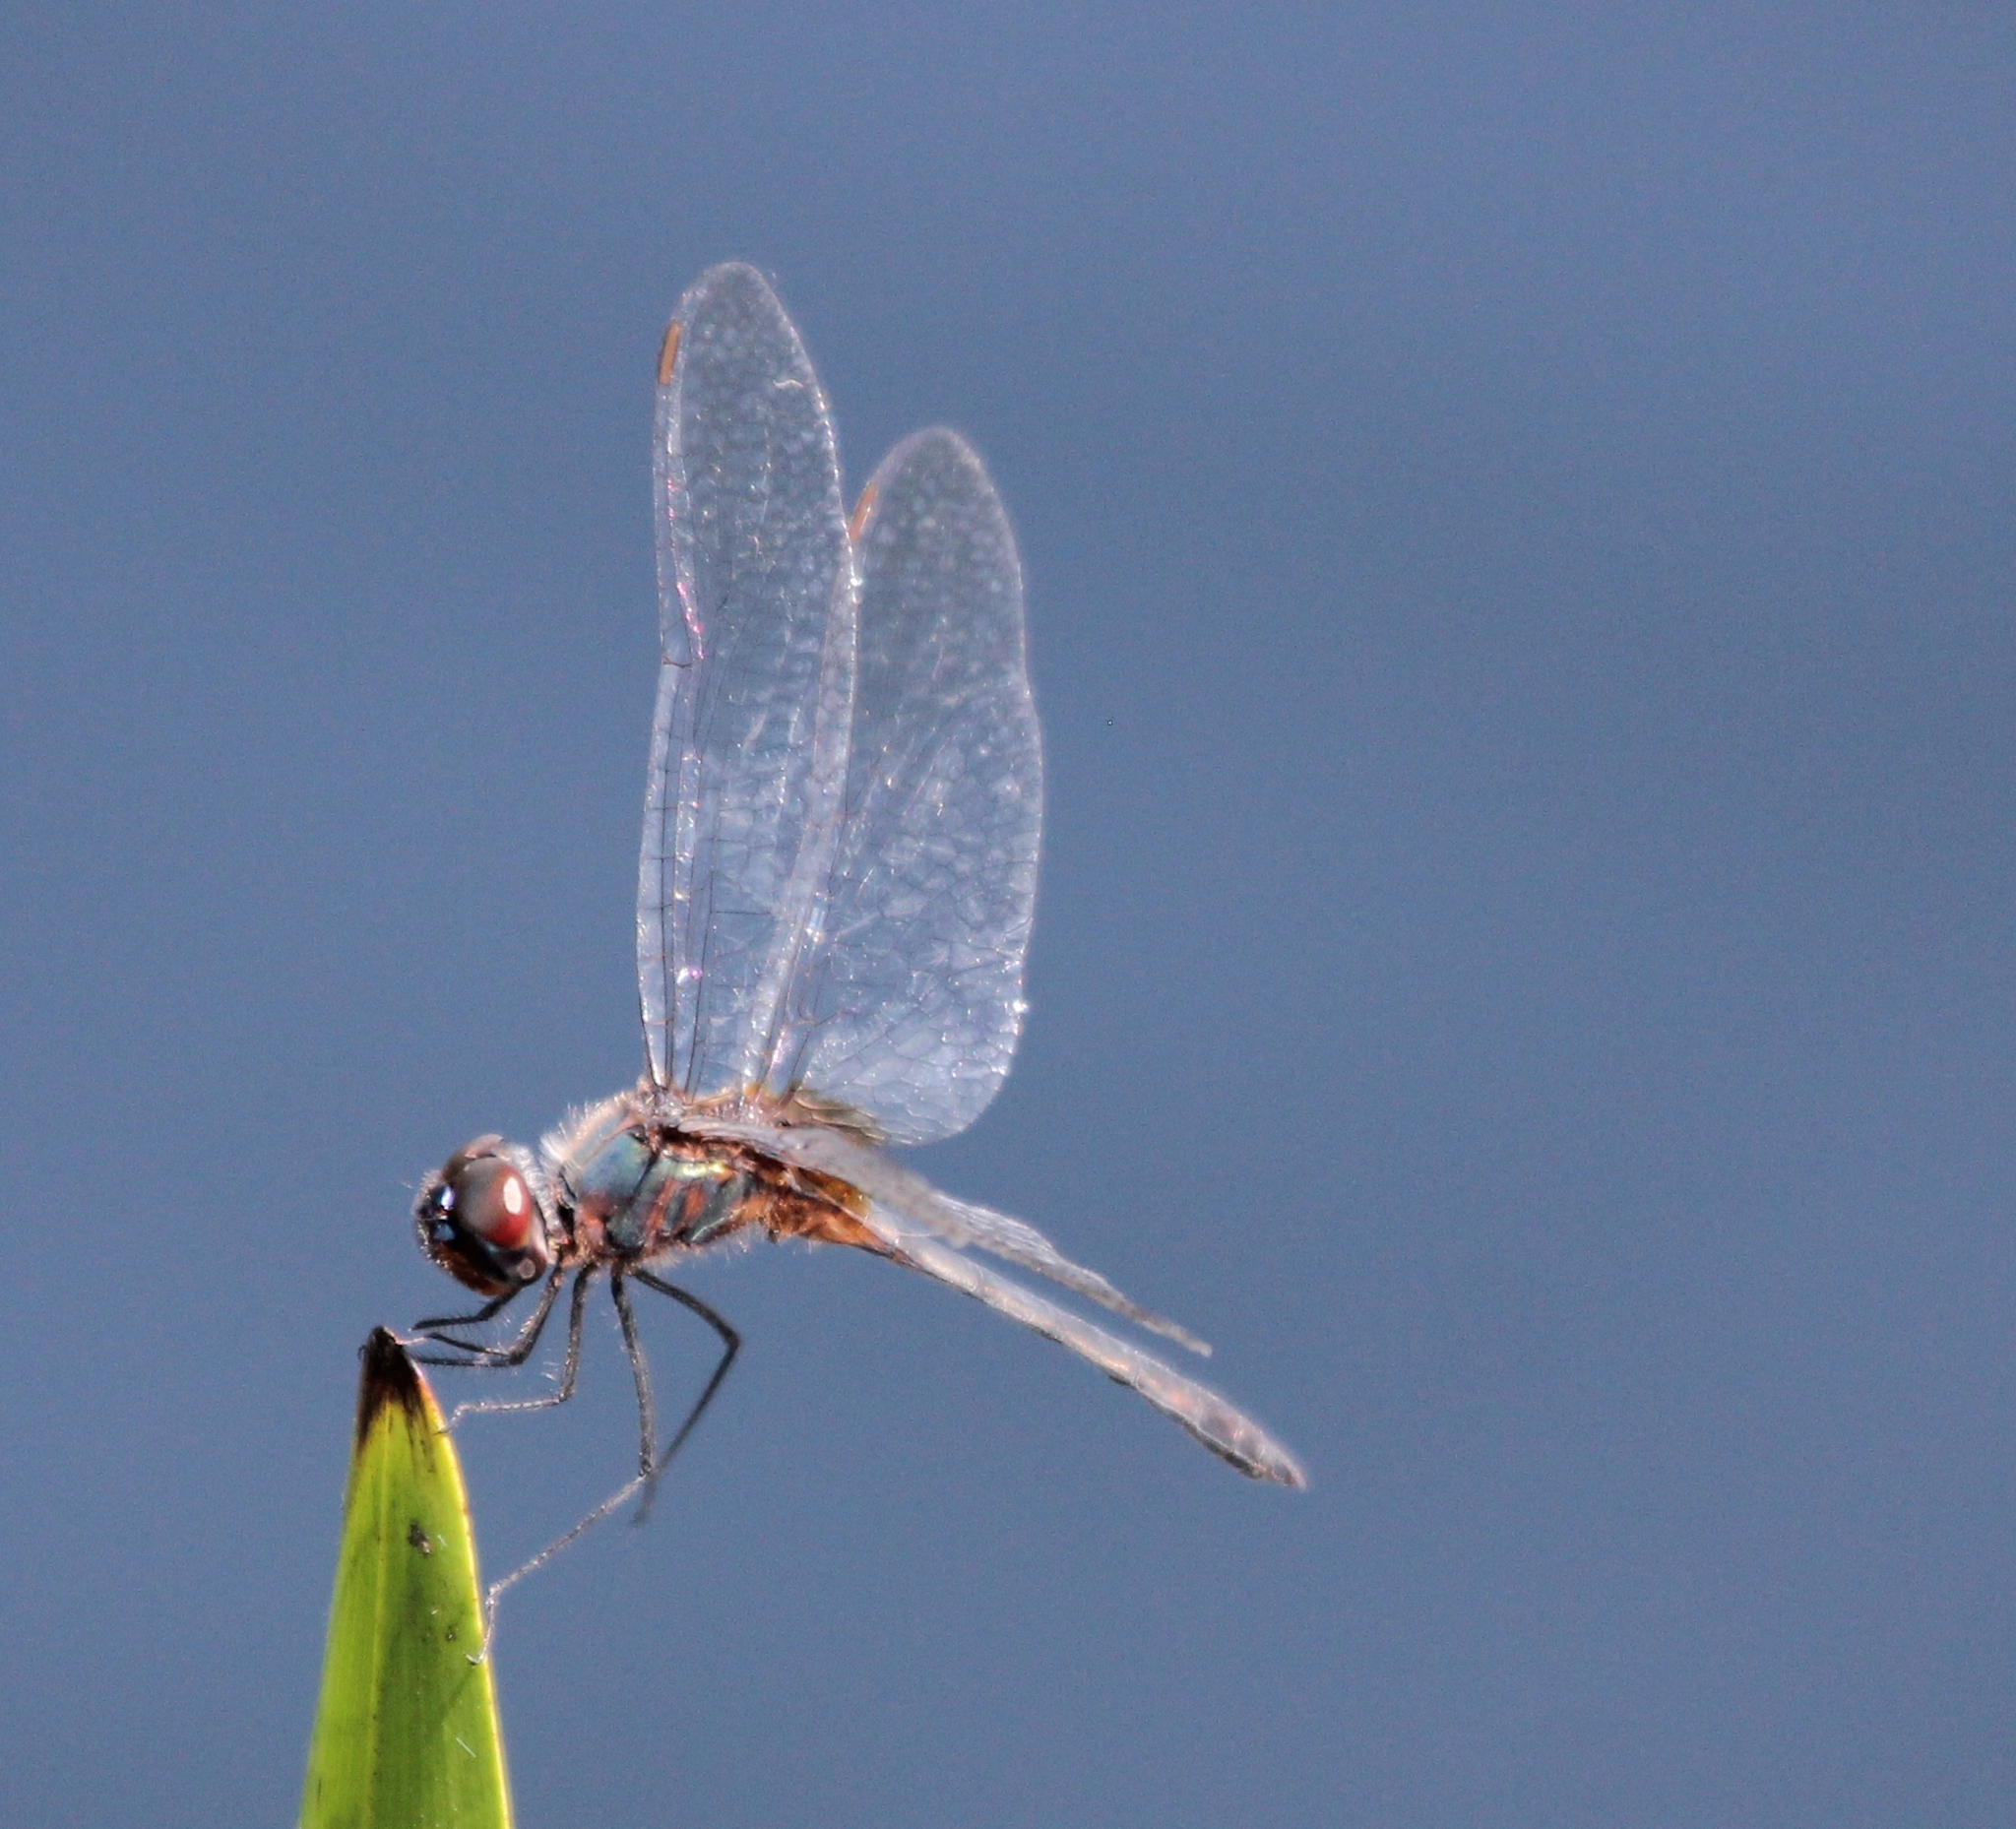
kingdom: Animalia
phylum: Arthropoda
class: Insecta
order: Odonata
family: Libellulidae
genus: Idiataphe
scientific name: Idiataphe cubensis
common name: Metallic pennant
